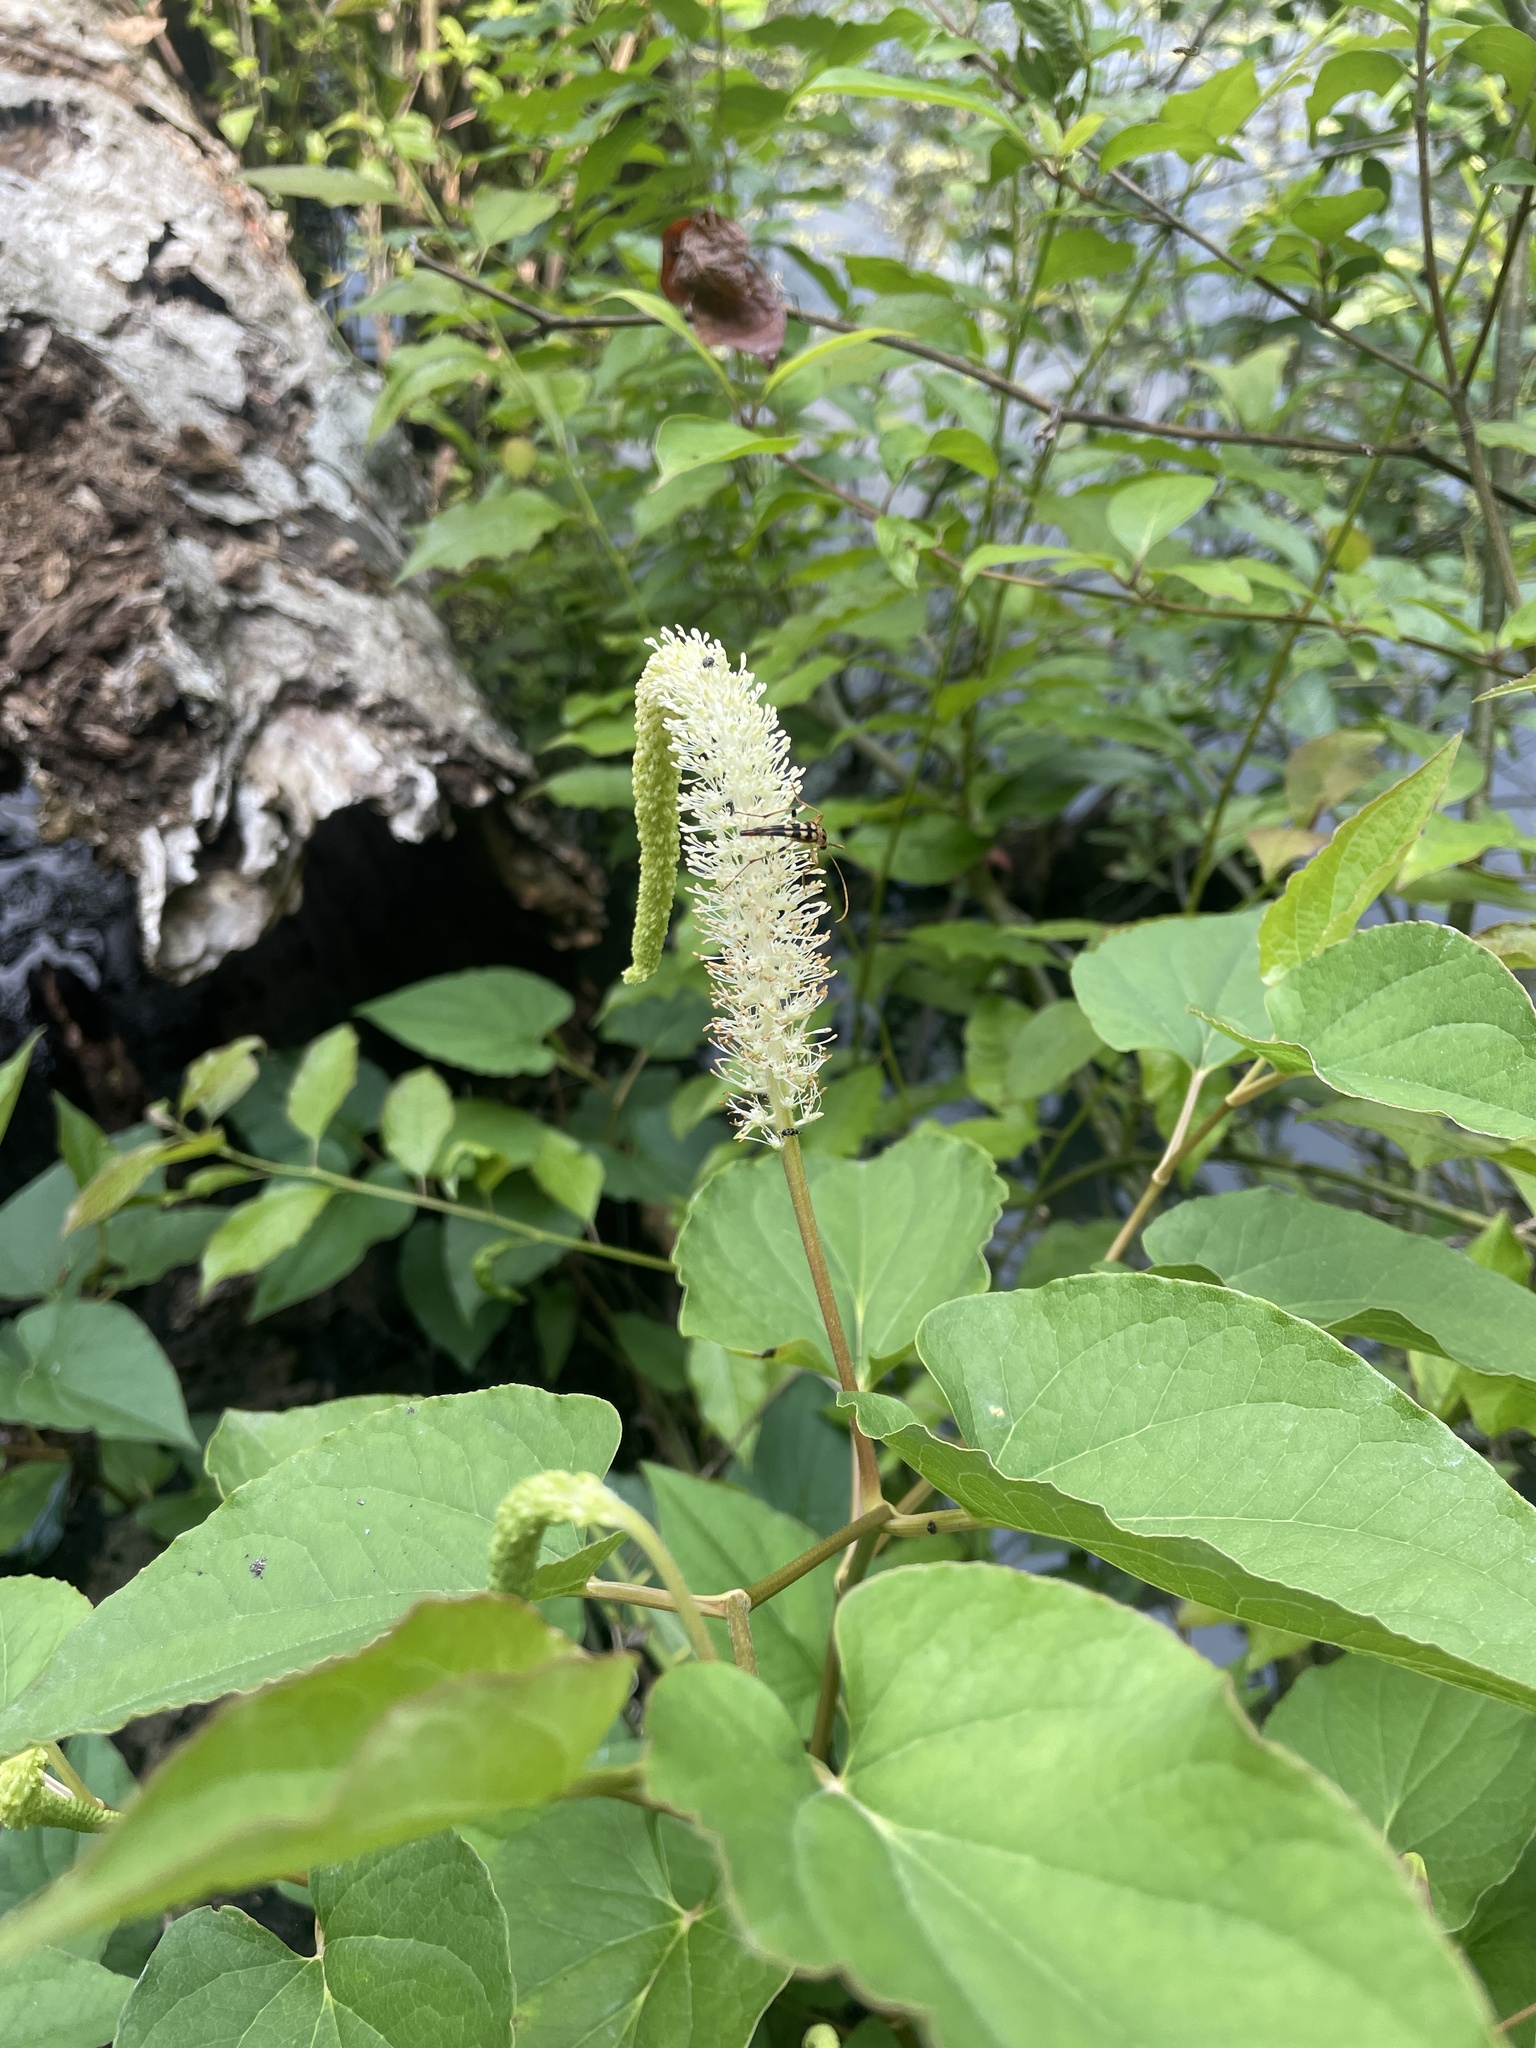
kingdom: Plantae
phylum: Tracheophyta
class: Magnoliopsida
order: Piperales
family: Saururaceae
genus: Saururus
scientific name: Saururus cernuus
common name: Lizard's-tail
